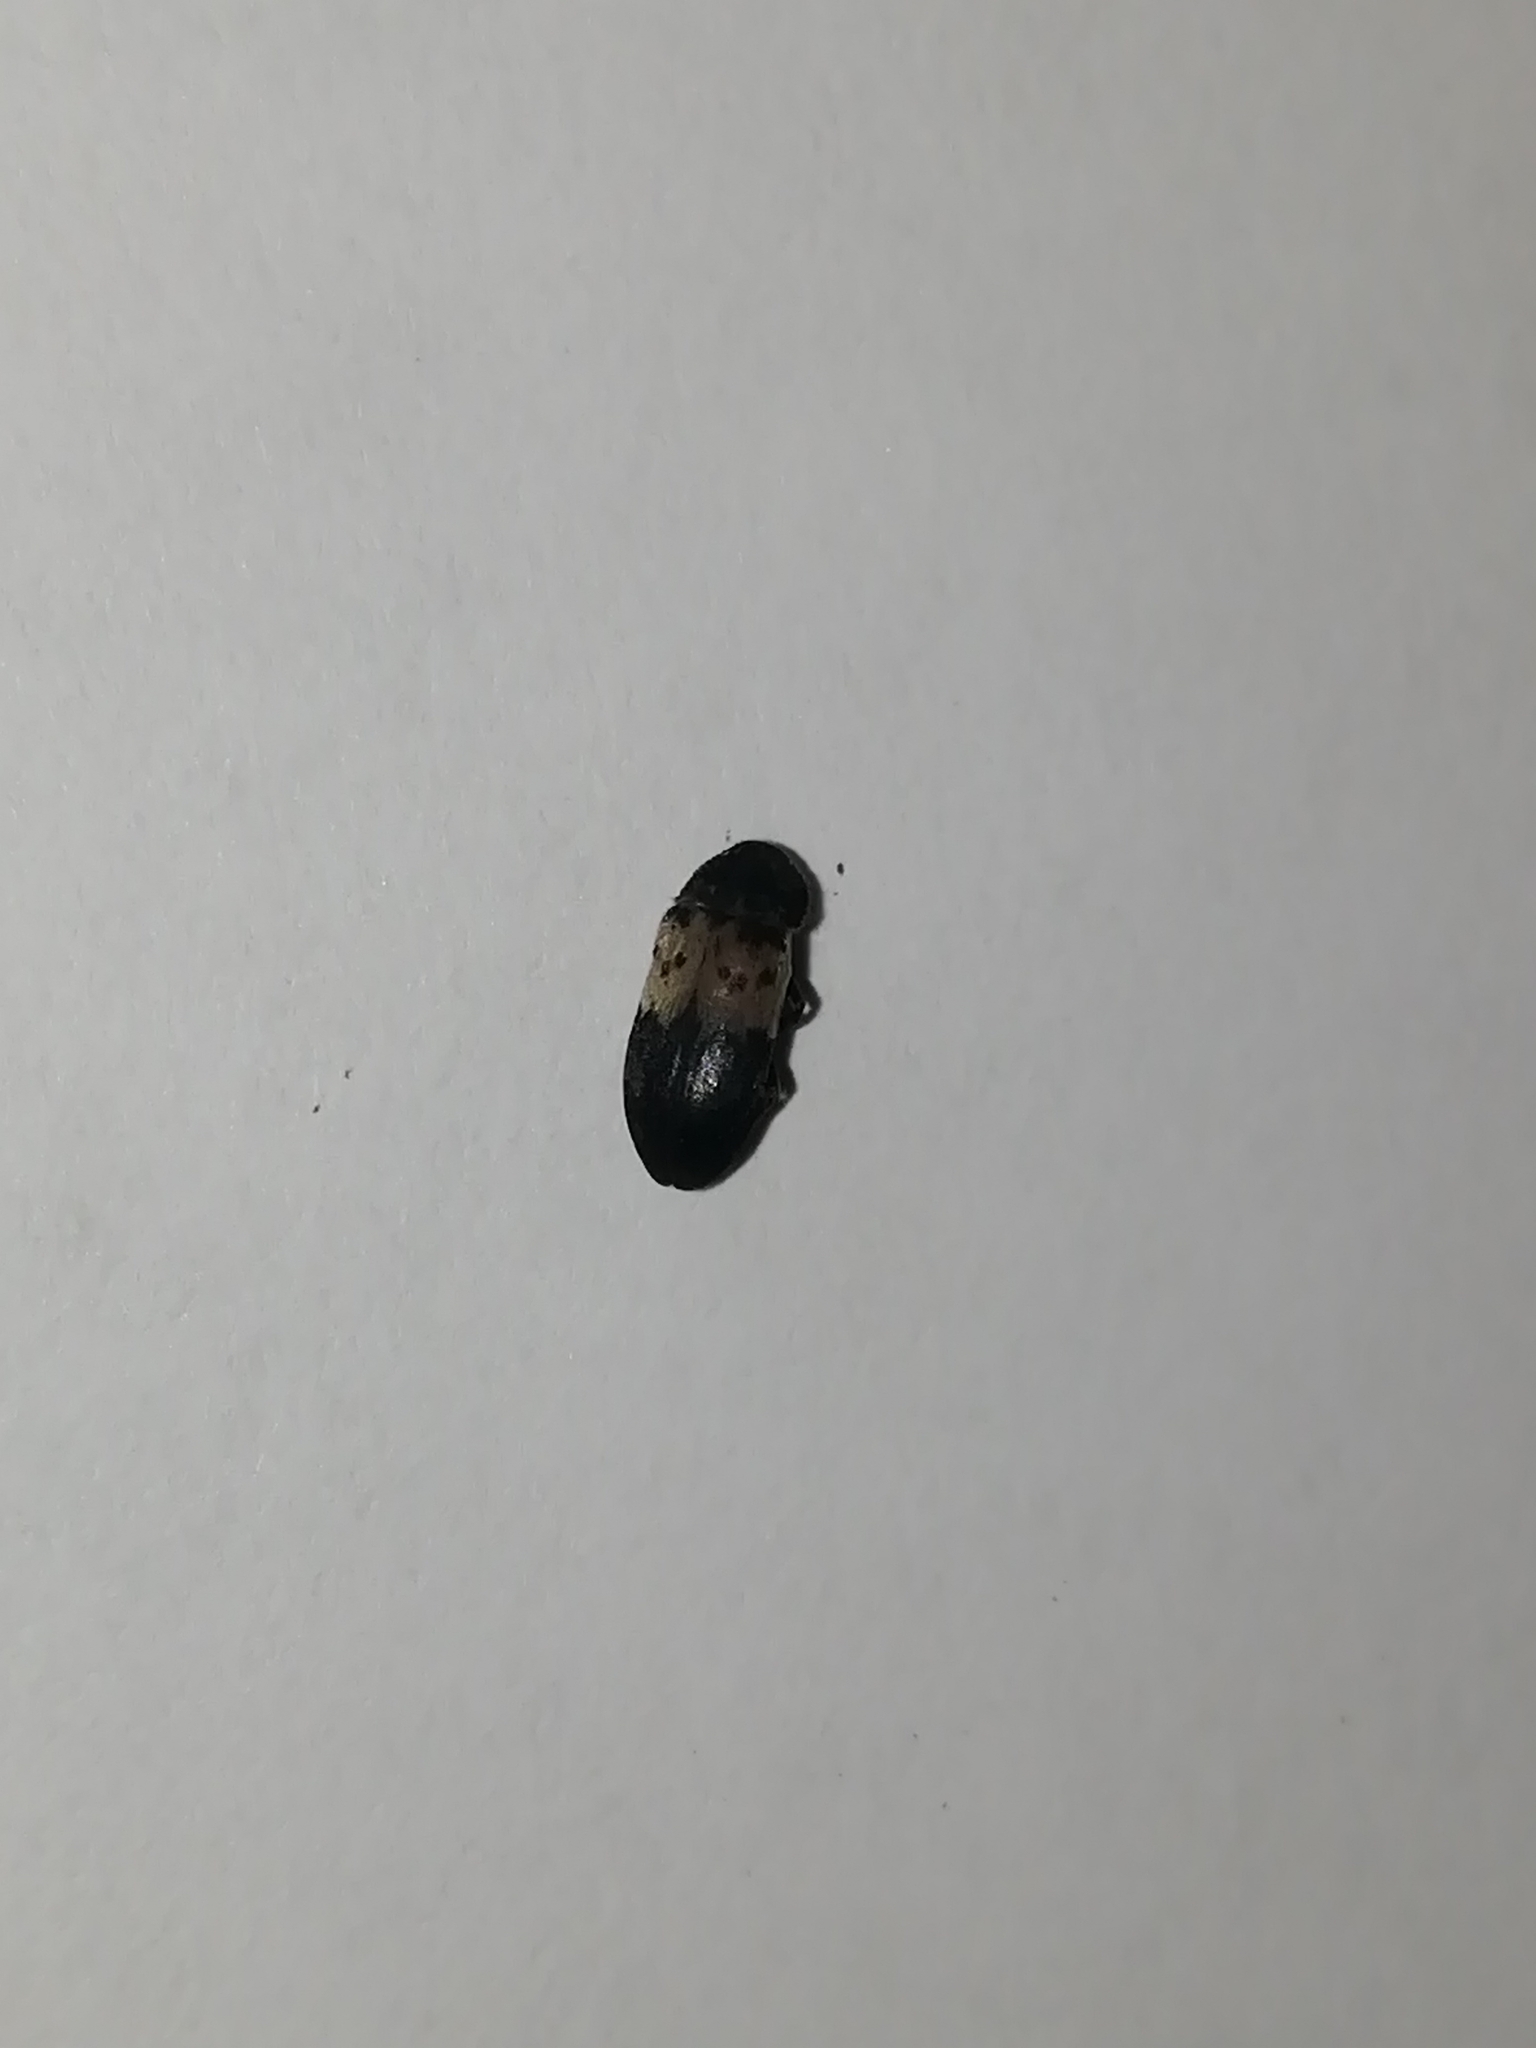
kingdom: Animalia
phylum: Arthropoda
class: Insecta
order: Coleoptera
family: Dermestidae
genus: Dermestes
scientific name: Dermestes lardarius
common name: Larder beetle
